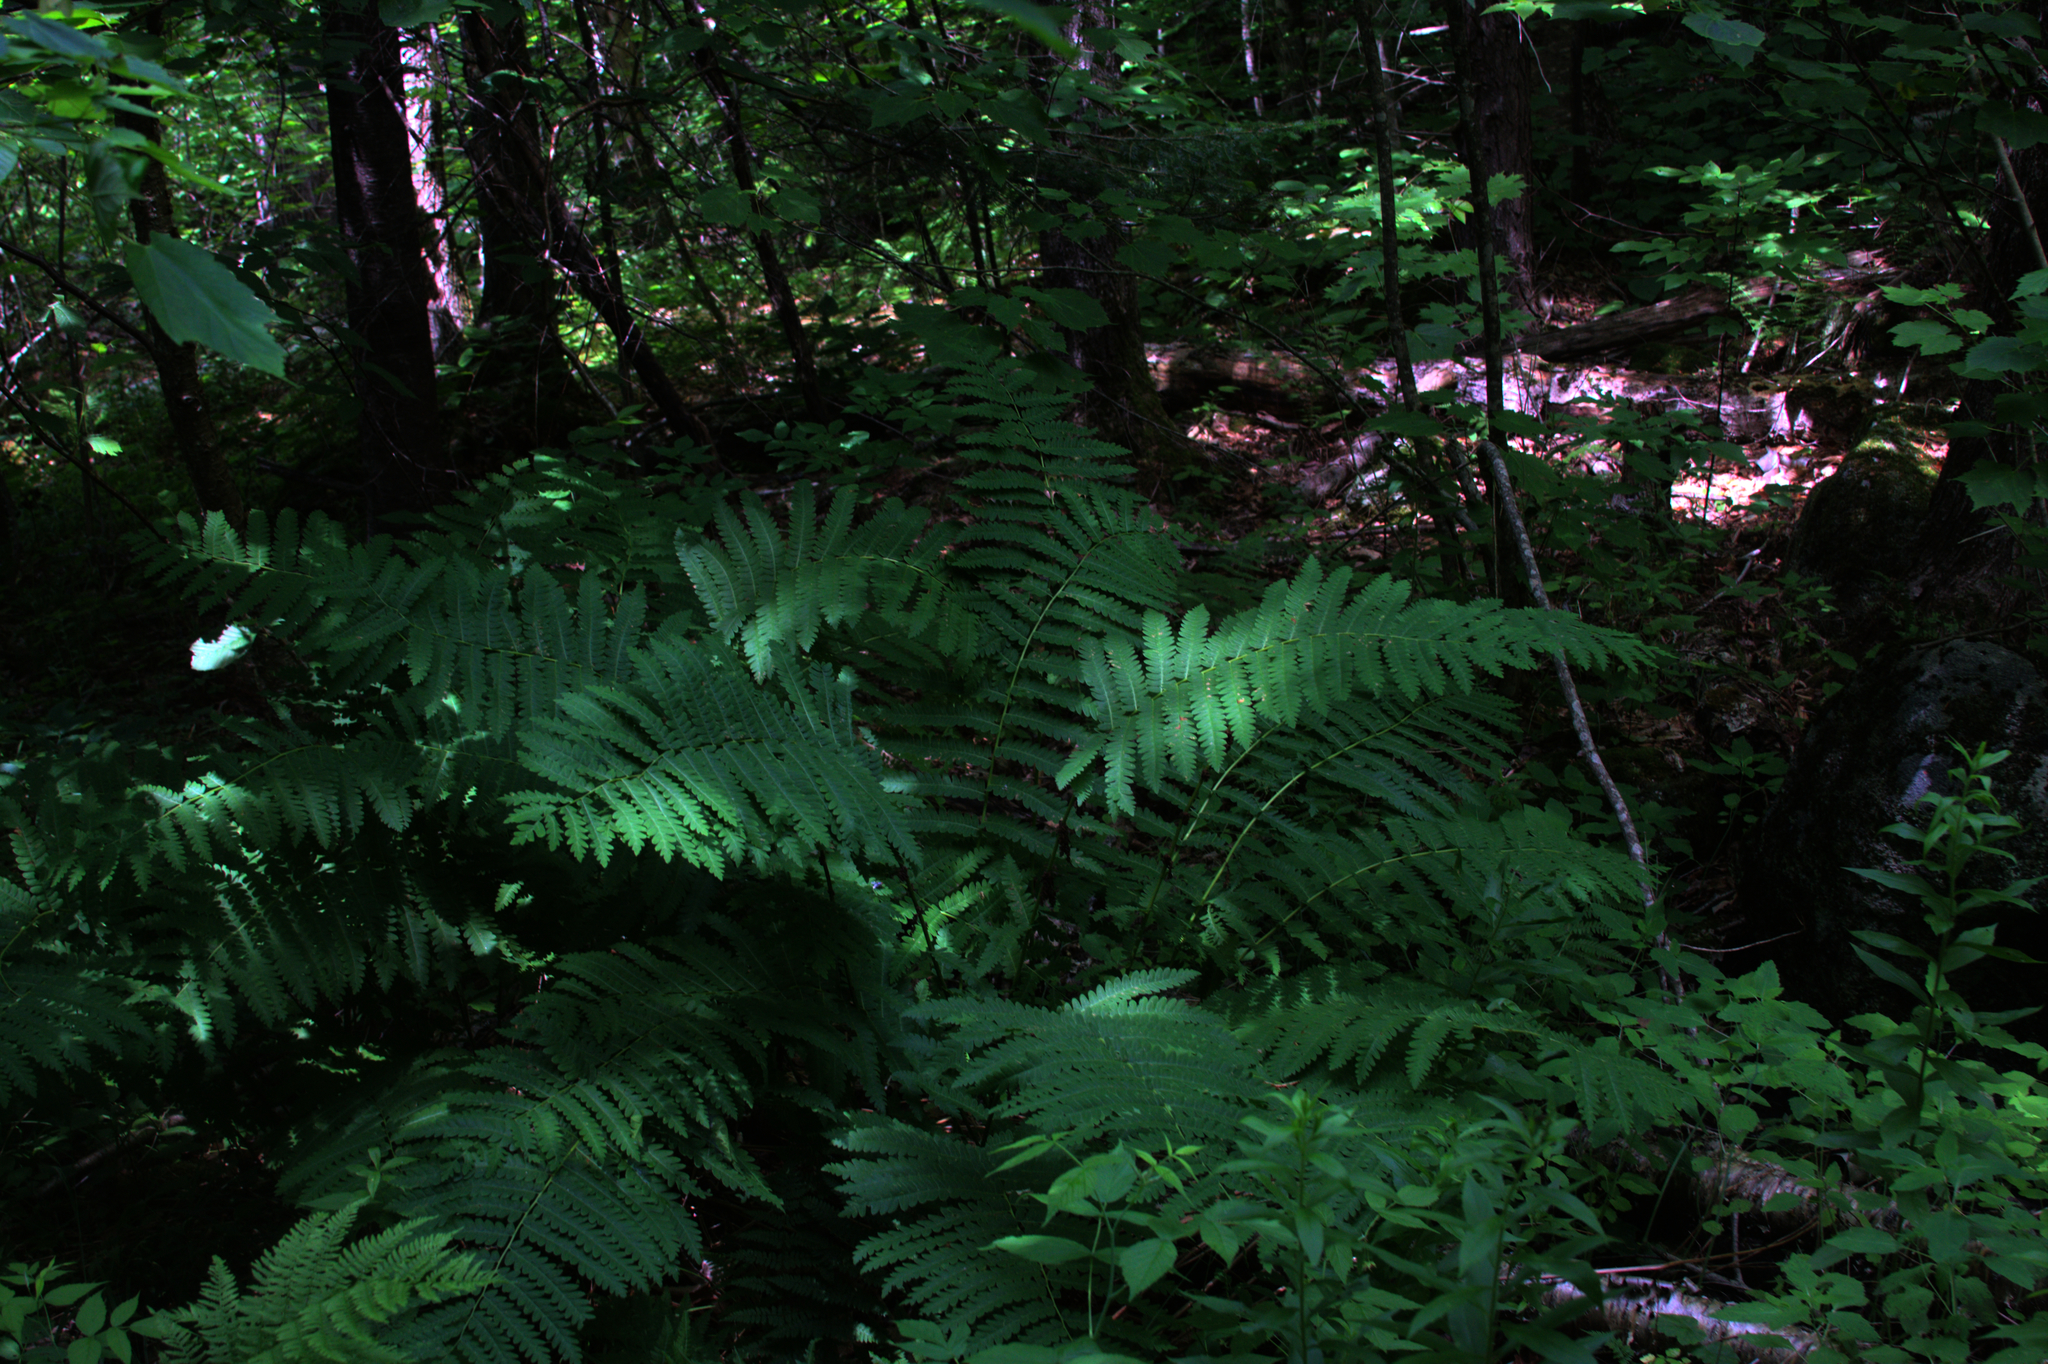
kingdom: Plantae
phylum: Tracheophyta
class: Polypodiopsida
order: Osmundales
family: Osmundaceae
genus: Osmundastrum
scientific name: Osmundastrum cinnamomeum
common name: Cinnamon fern
